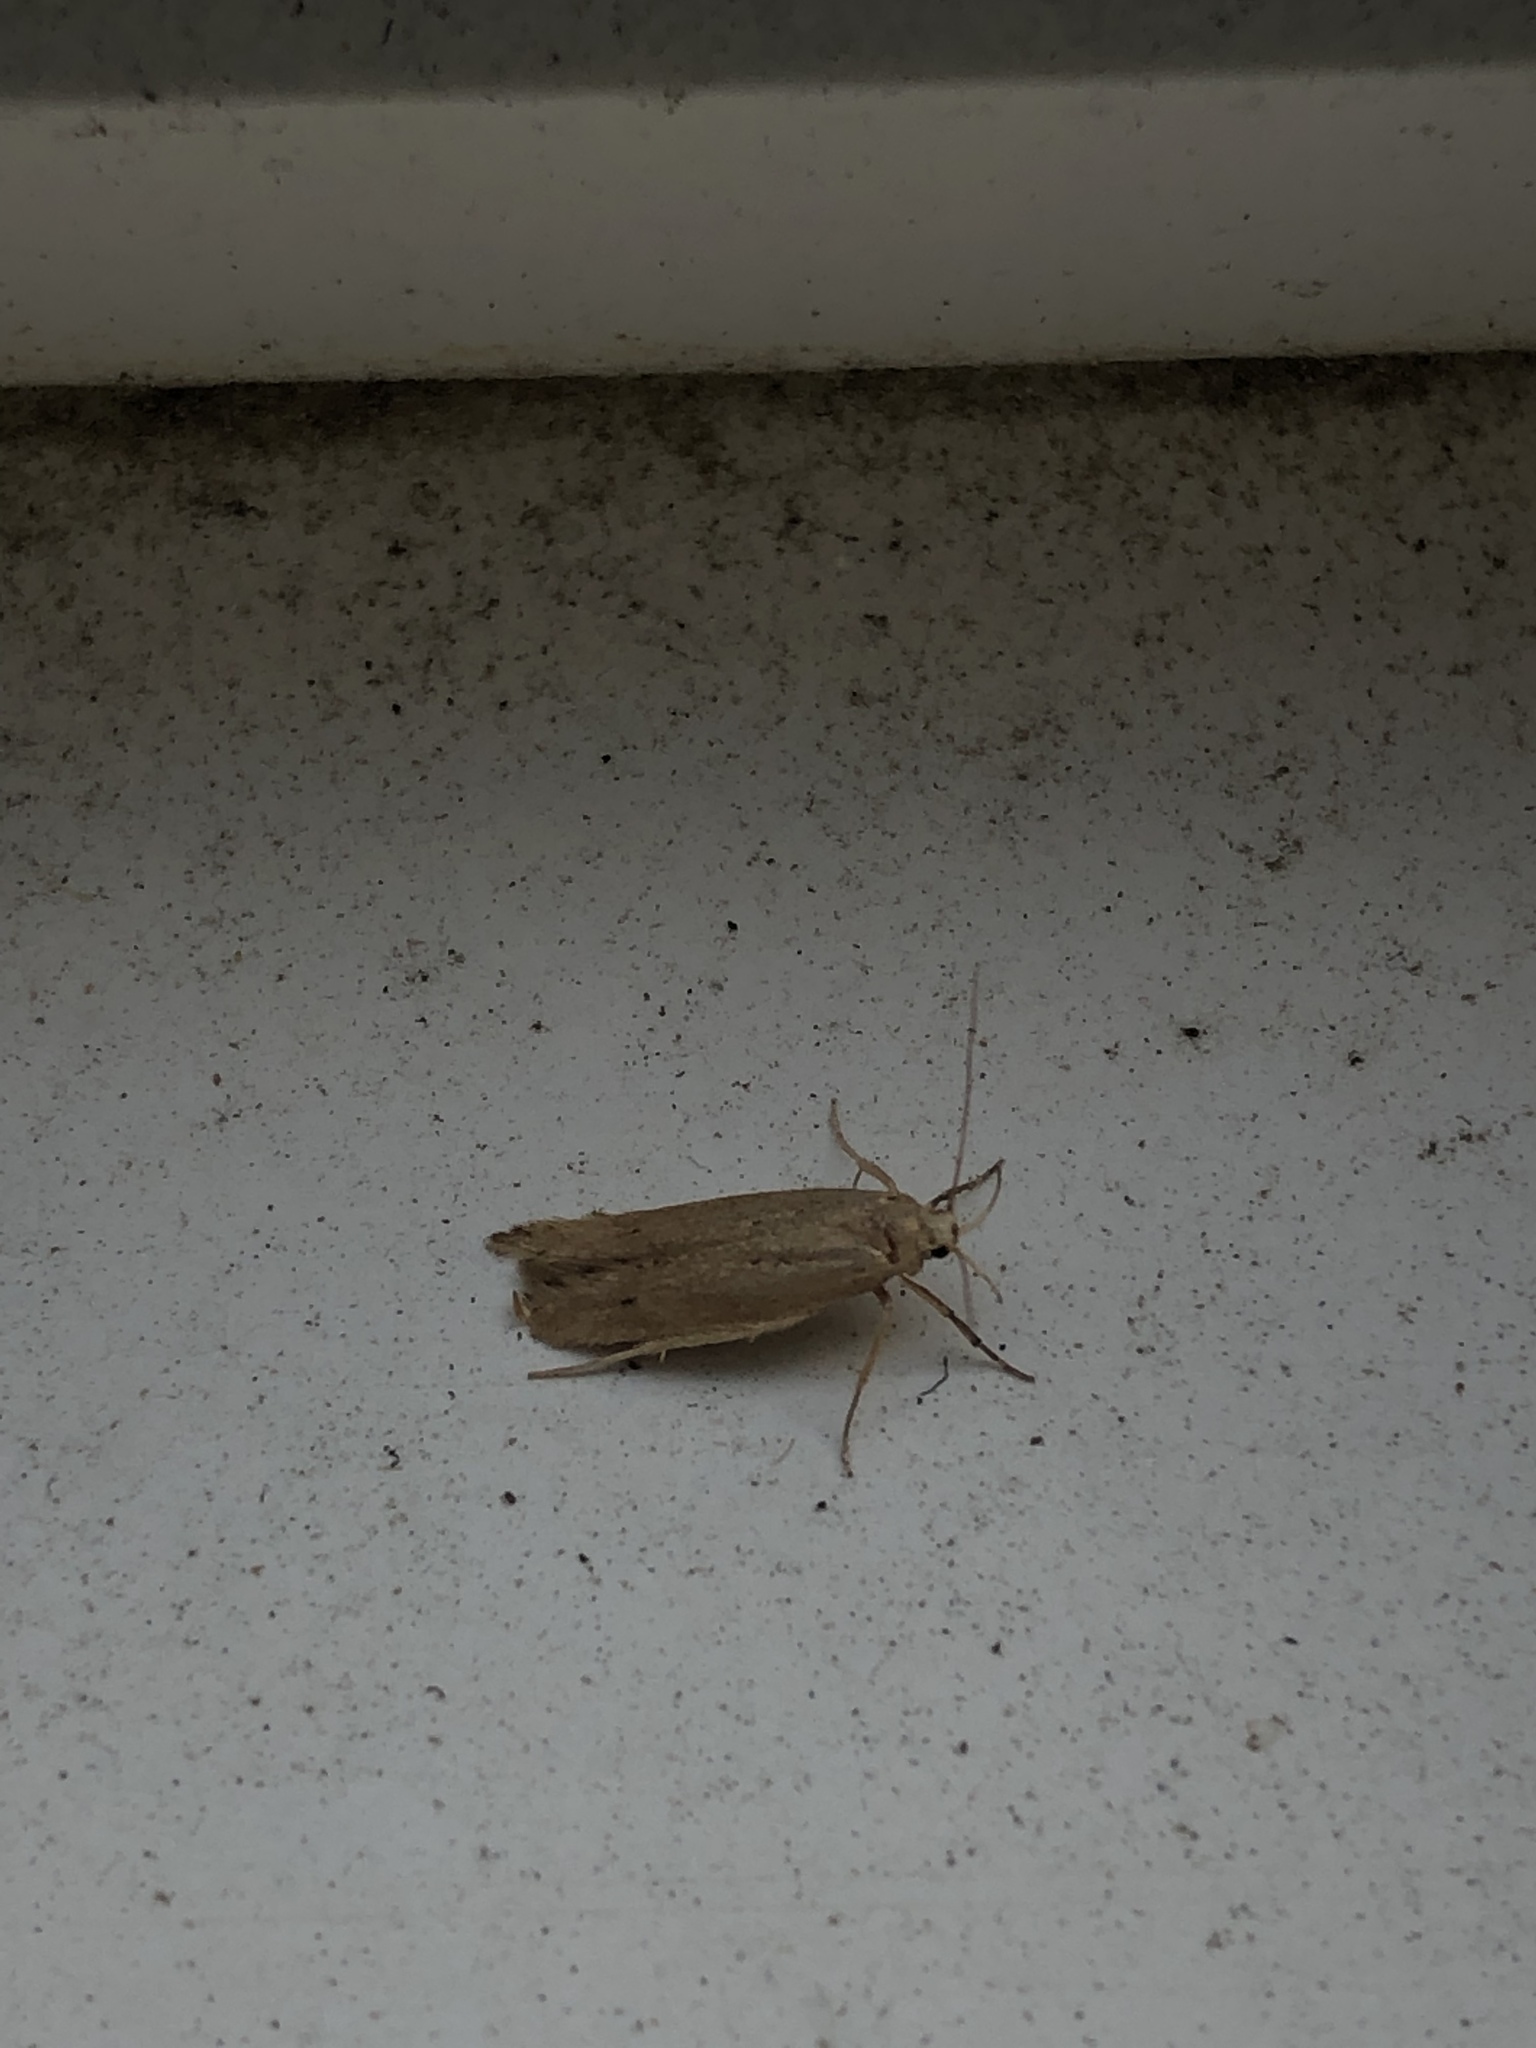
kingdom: Animalia
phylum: Arthropoda
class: Insecta
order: Lepidoptera
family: Cosmopterigidae
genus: Limnaecia
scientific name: Limnaecia phragmitella
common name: Bulrush cosmet
